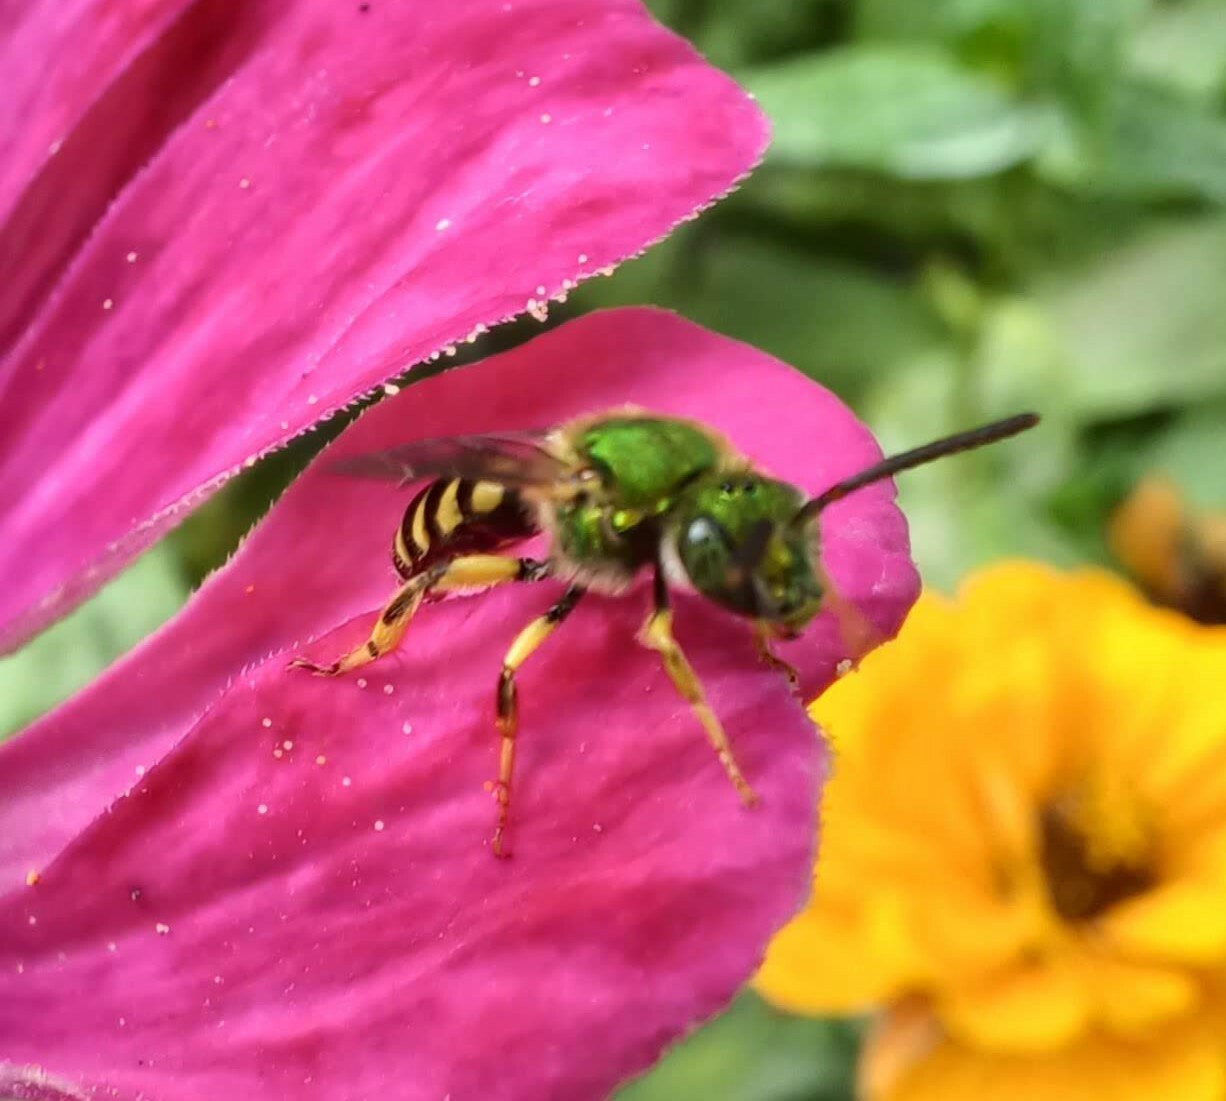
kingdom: Animalia
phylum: Arthropoda
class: Insecta
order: Hymenoptera
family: Halictidae
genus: Agapostemon
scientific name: Agapostemon virescens
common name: Bicolored striped sweat bee
